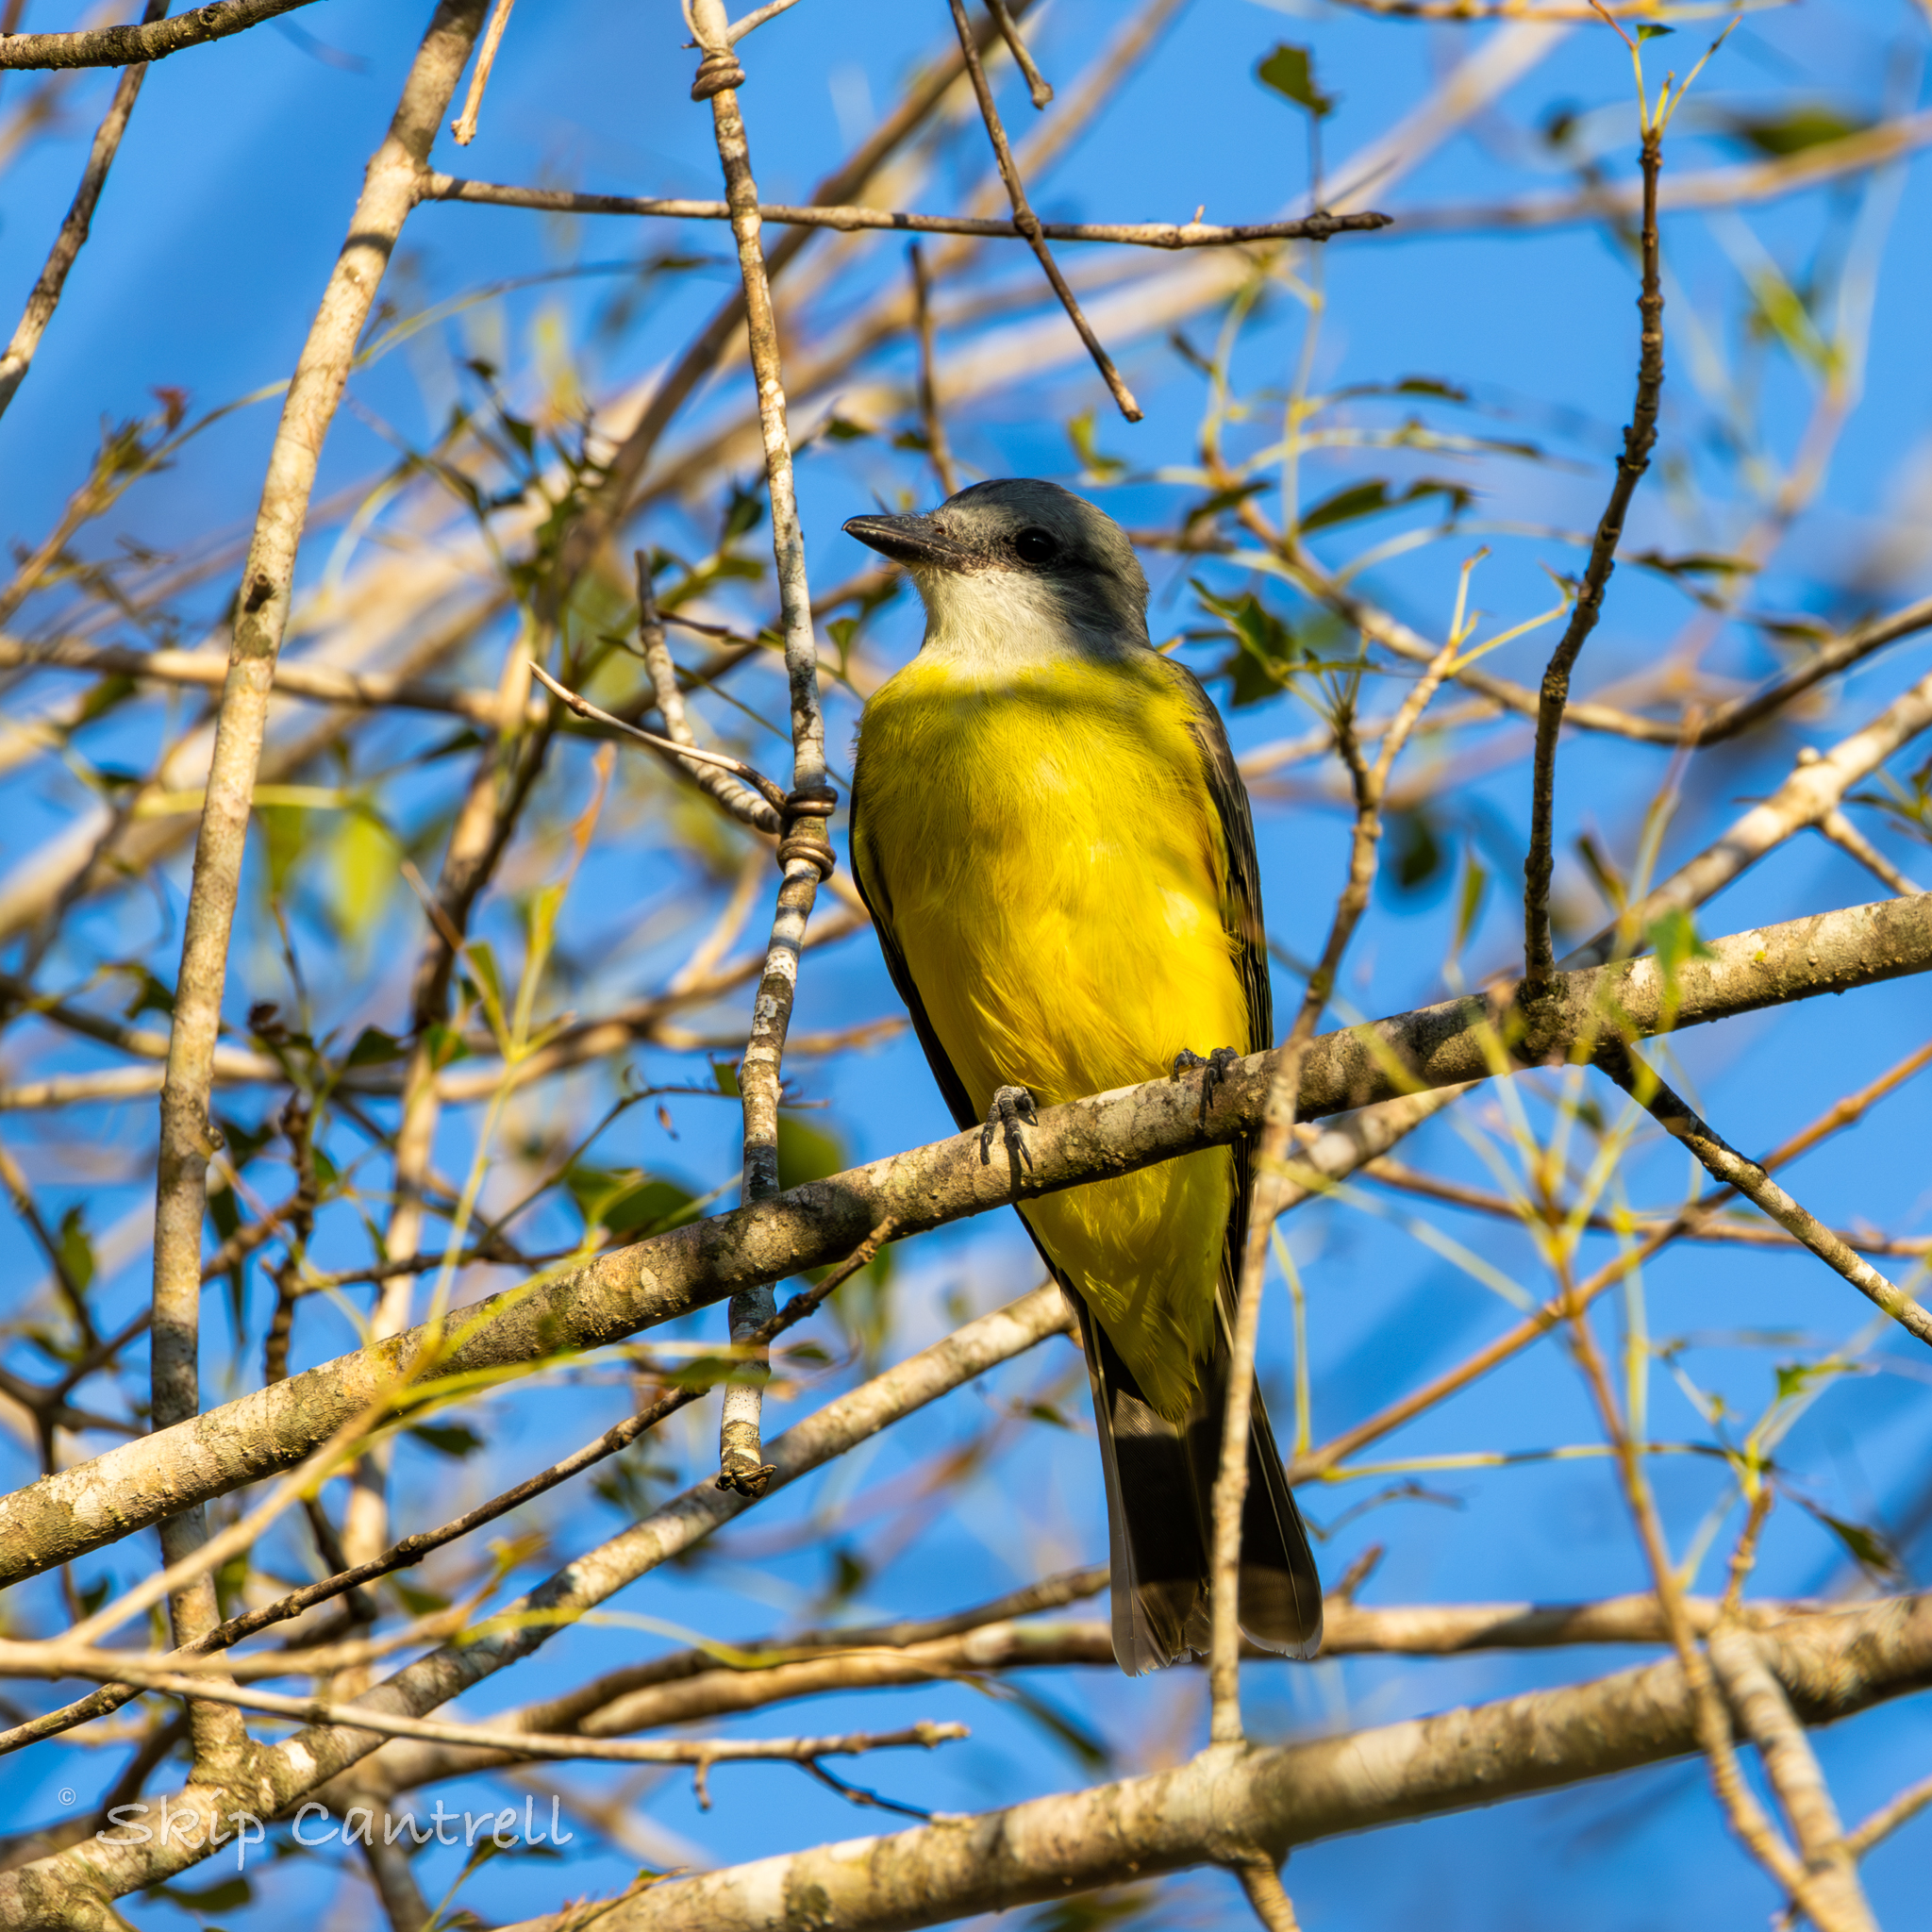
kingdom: Animalia
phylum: Chordata
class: Aves
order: Passeriformes
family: Tyrannidae
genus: Tyrannus
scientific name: Tyrannus couchii
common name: Couch's kingbird
